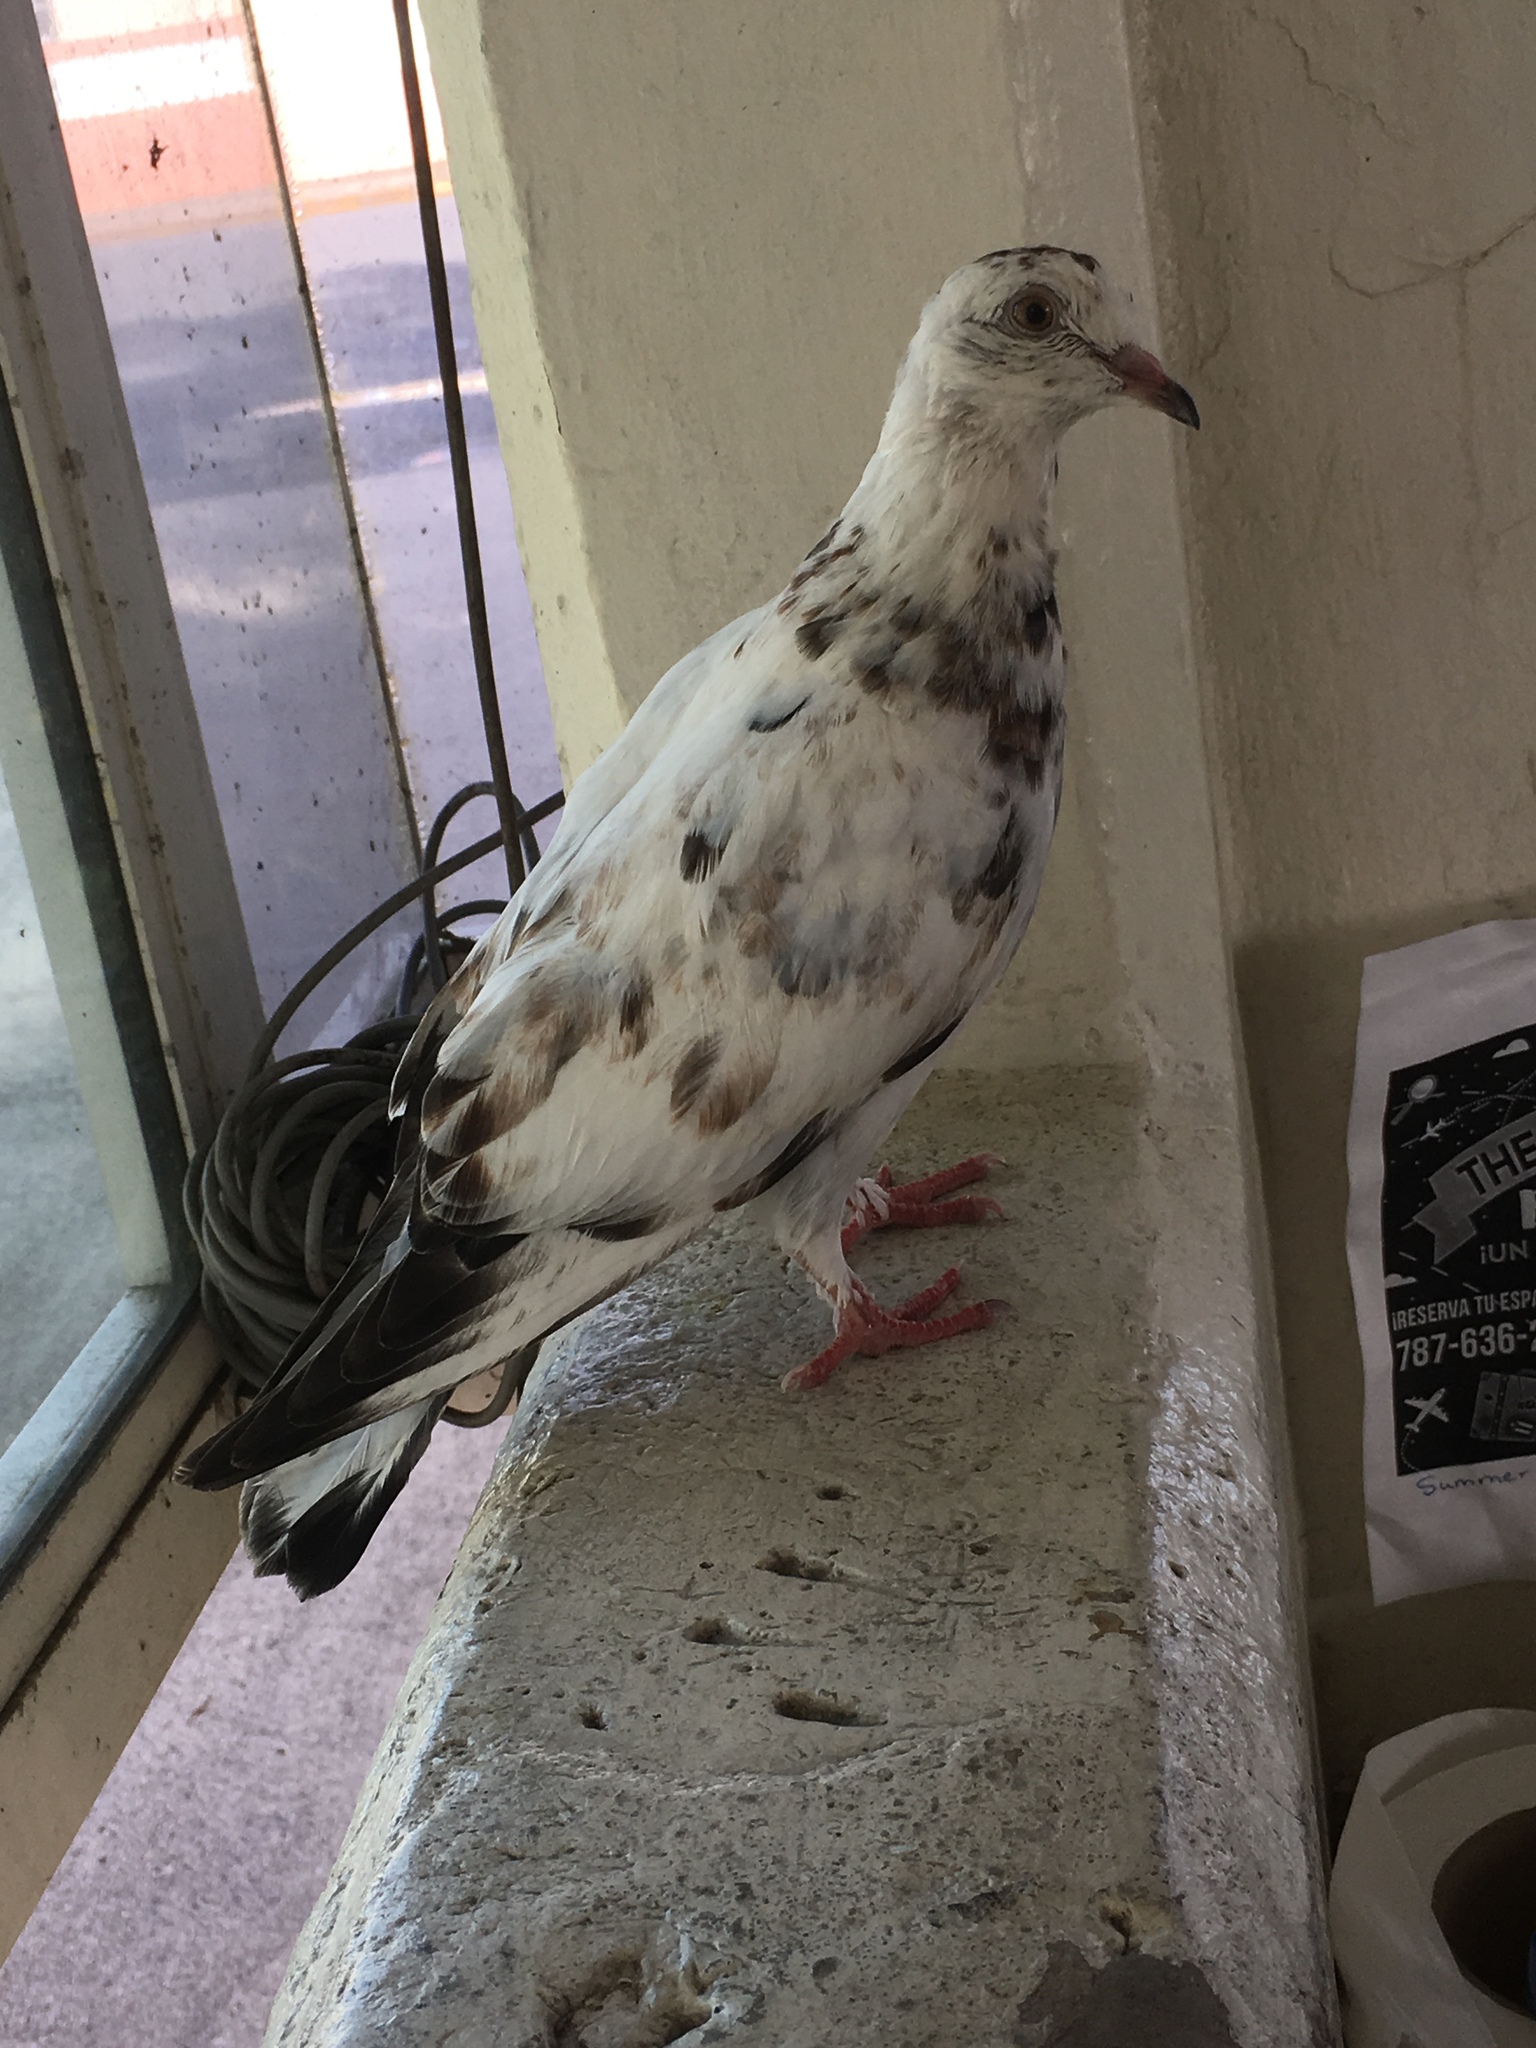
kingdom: Animalia
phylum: Chordata
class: Aves
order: Columbiformes
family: Columbidae
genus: Columba
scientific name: Columba livia
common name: Rock pigeon
